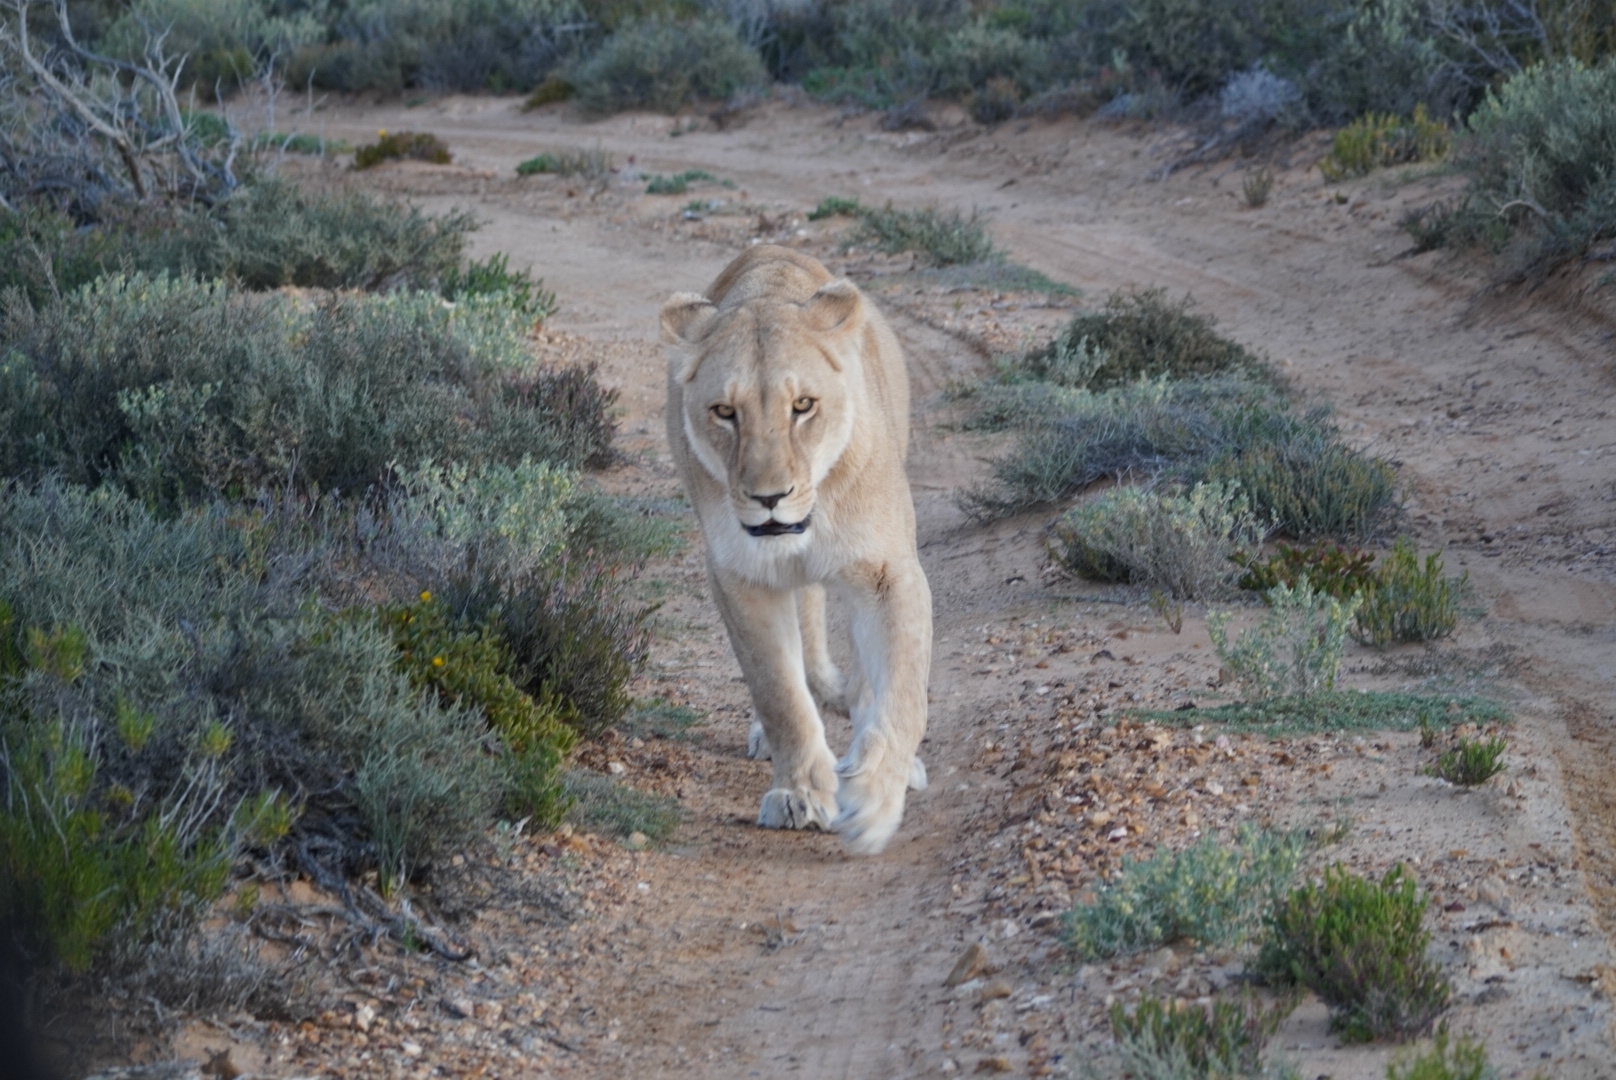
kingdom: Animalia
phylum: Chordata
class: Mammalia
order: Carnivora
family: Felidae
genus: Panthera
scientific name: Panthera leo
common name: Lion
